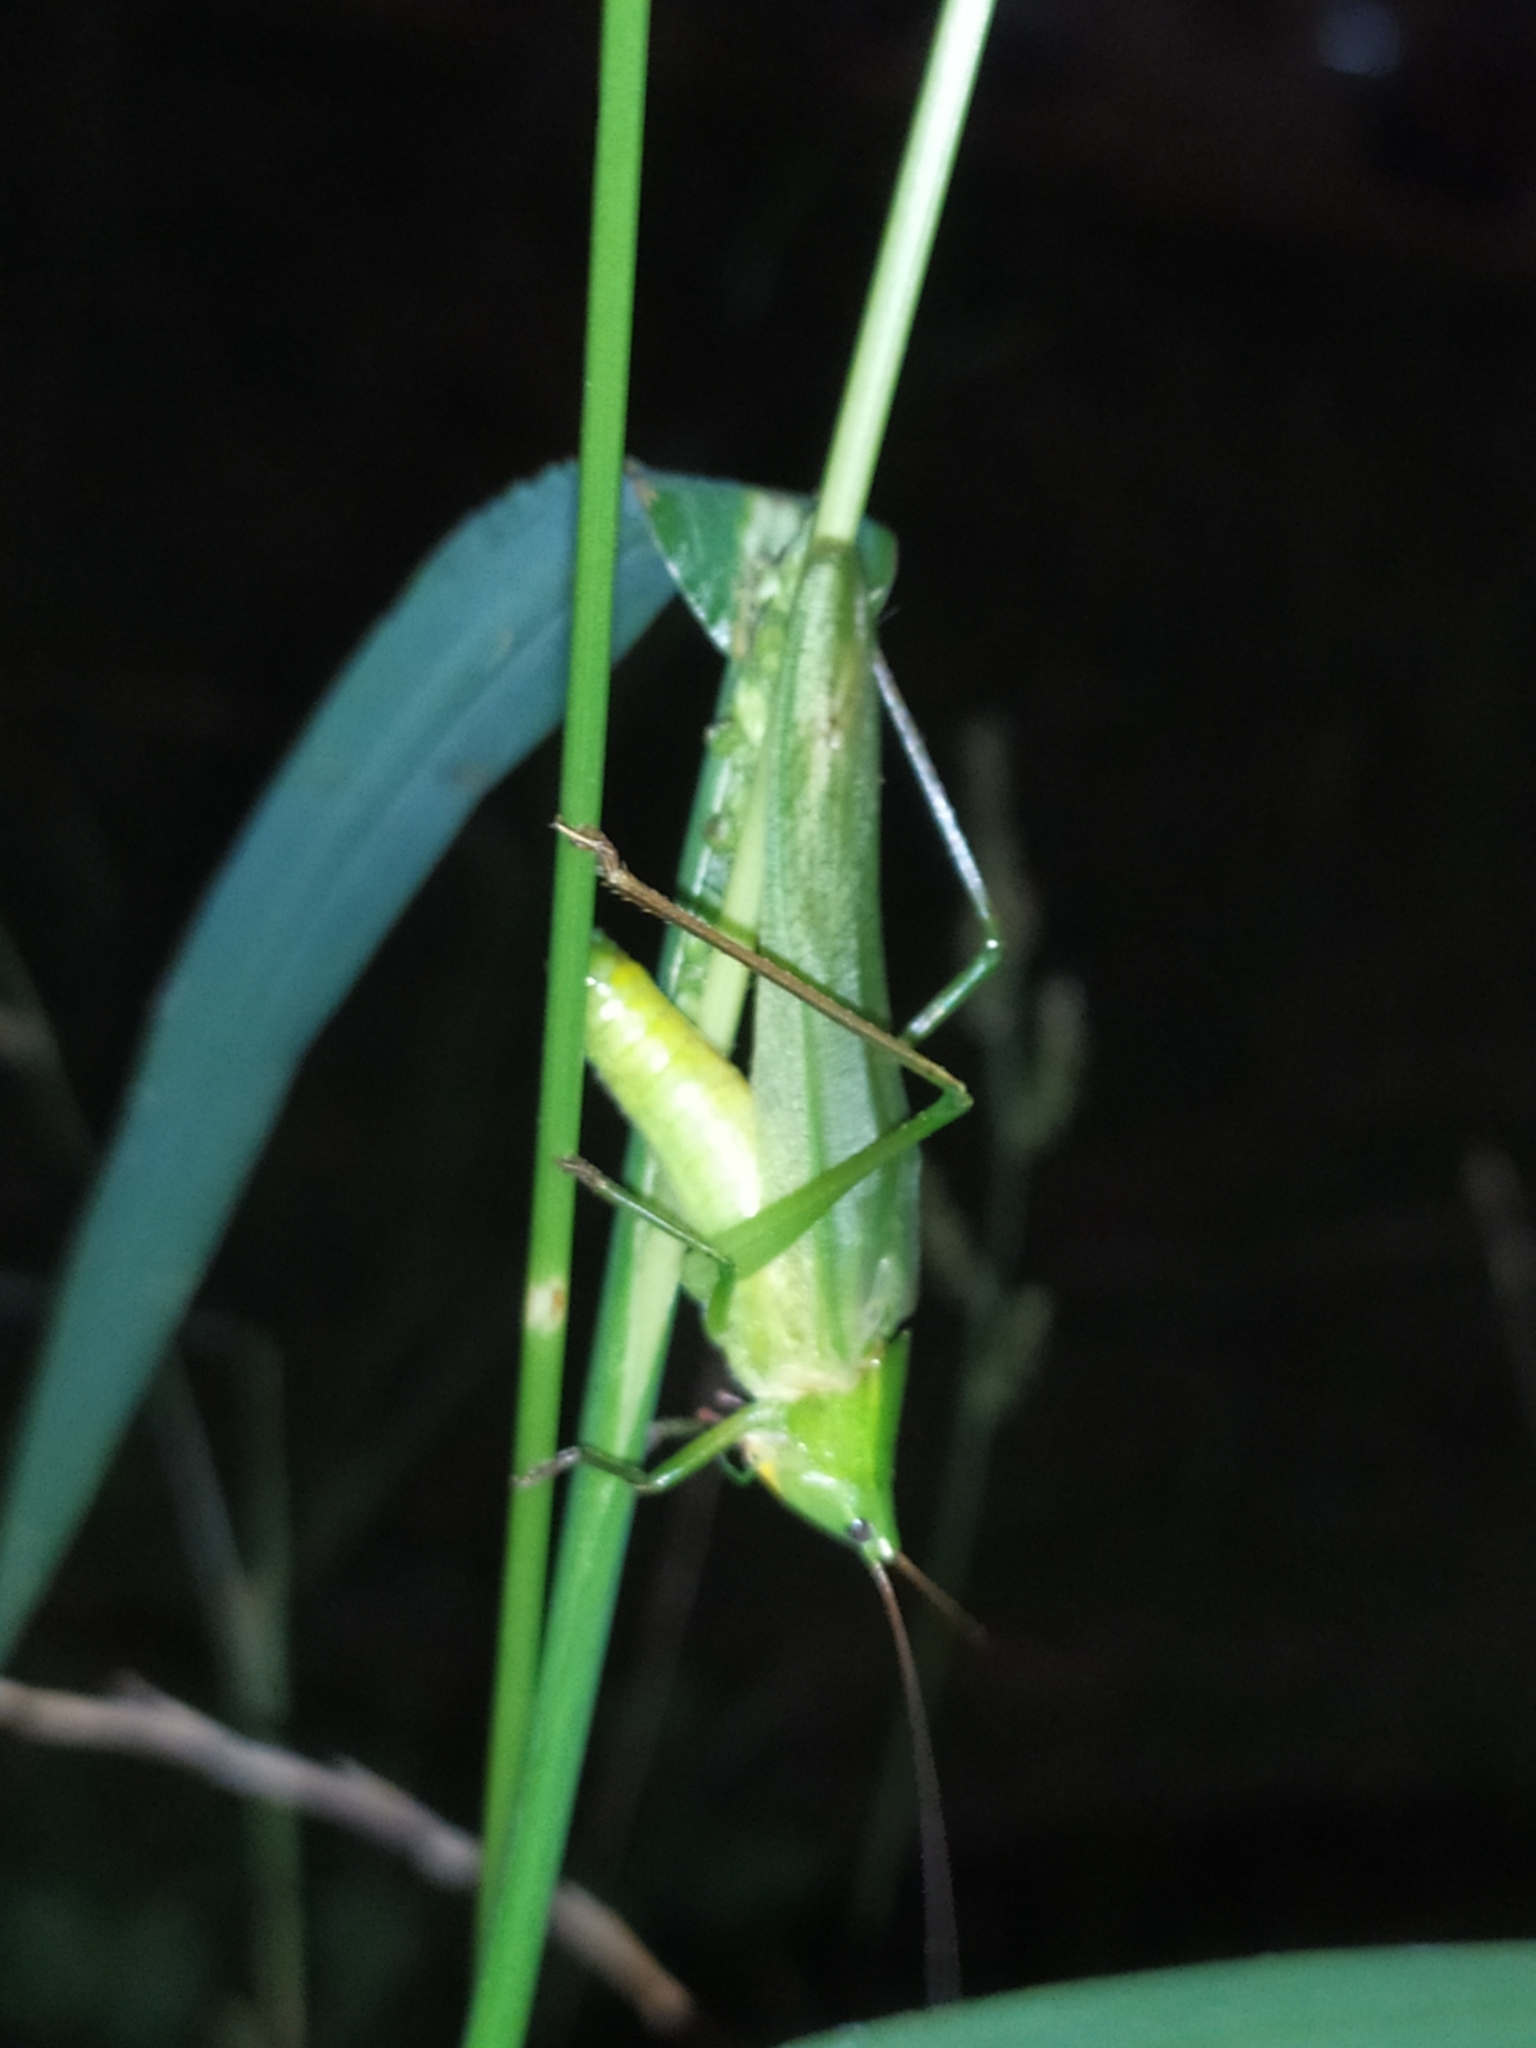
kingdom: Animalia
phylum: Arthropoda
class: Insecta
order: Orthoptera
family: Tettigoniidae
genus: Ruspolia
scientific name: Ruspolia nitidula
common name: Large conehead
